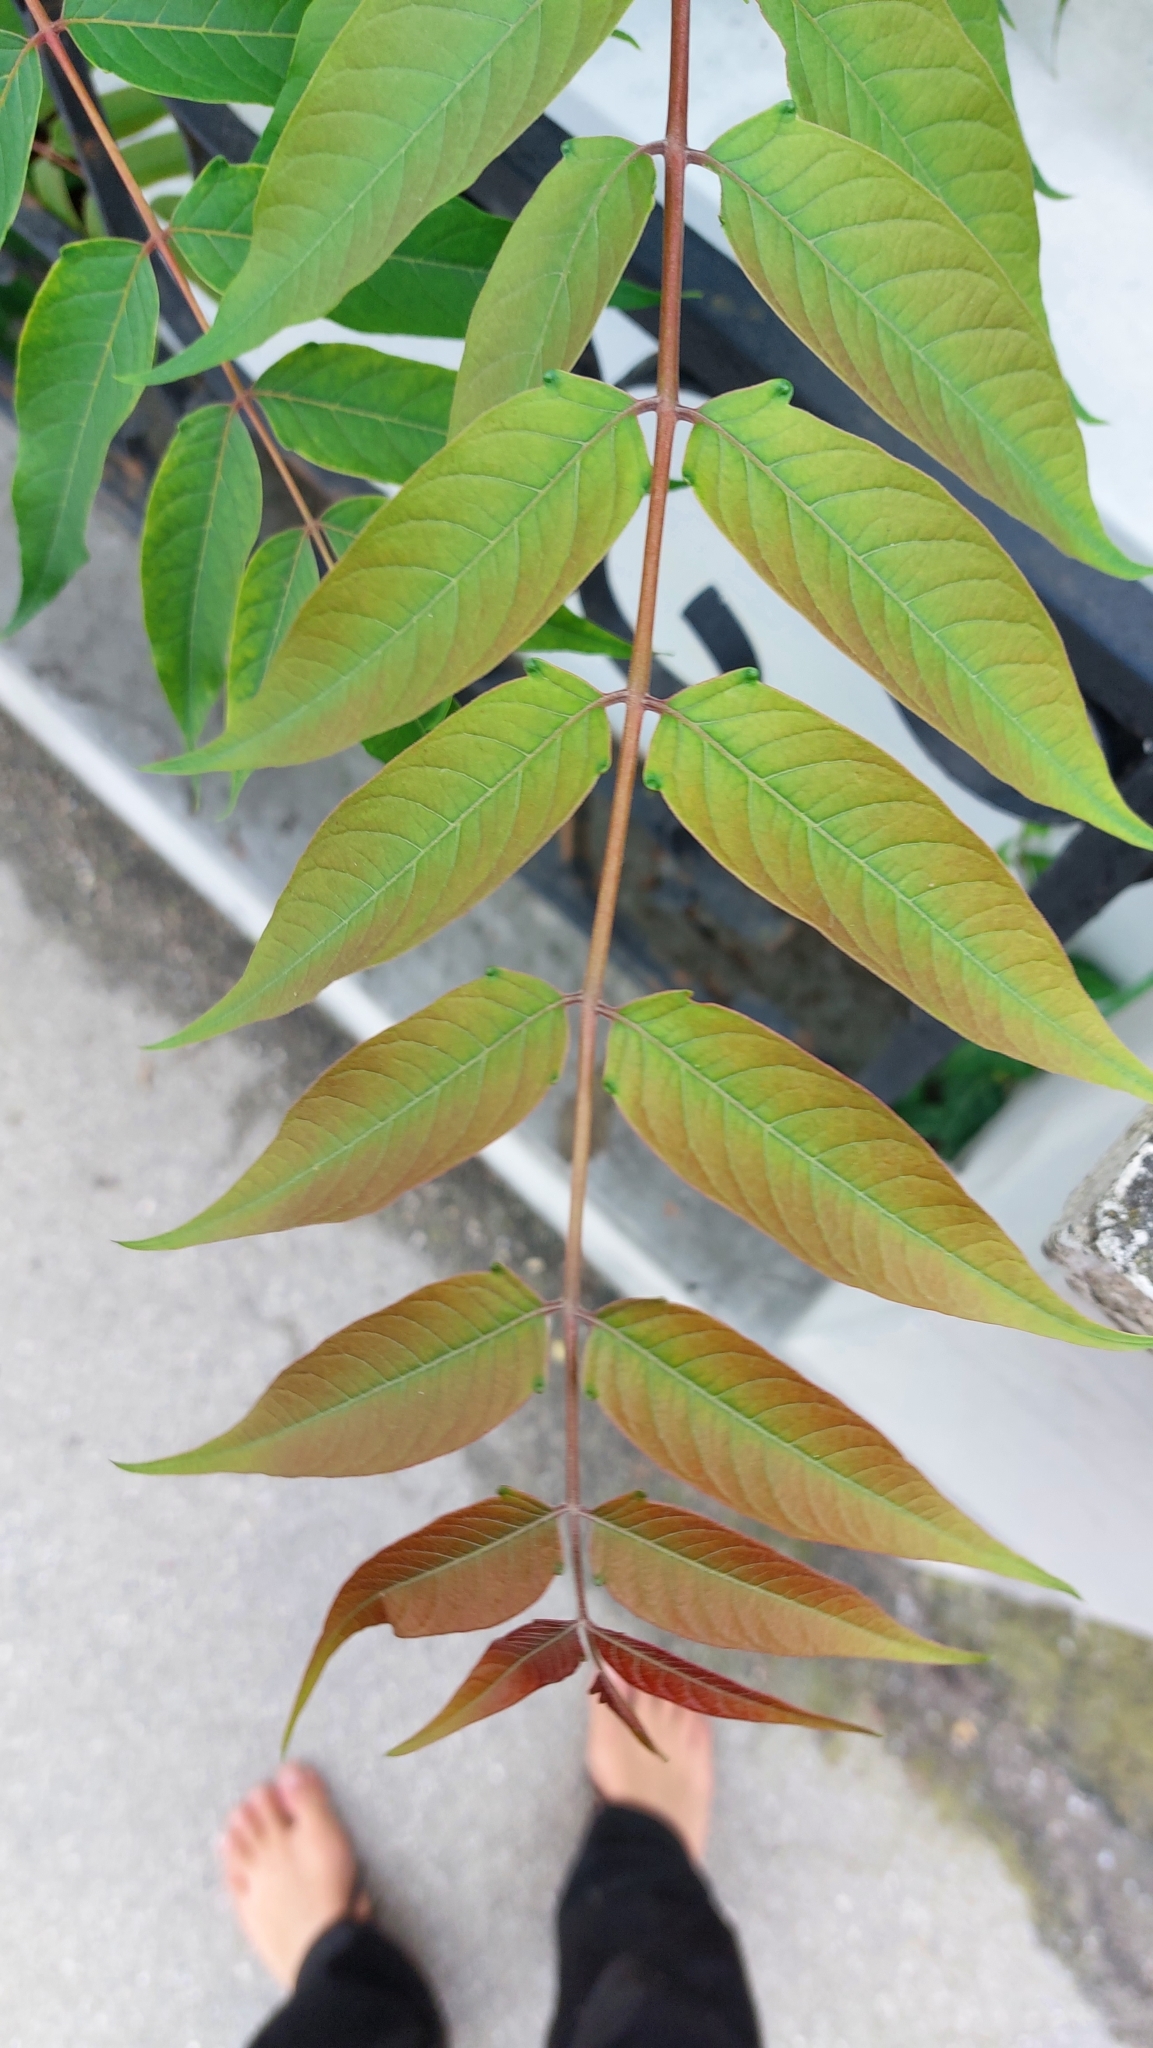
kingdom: Plantae
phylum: Tracheophyta
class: Magnoliopsida
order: Sapindales
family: Simaroubaceae
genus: Ailanthus
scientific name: Ailanthus altissima
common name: Tree-of-heaven
